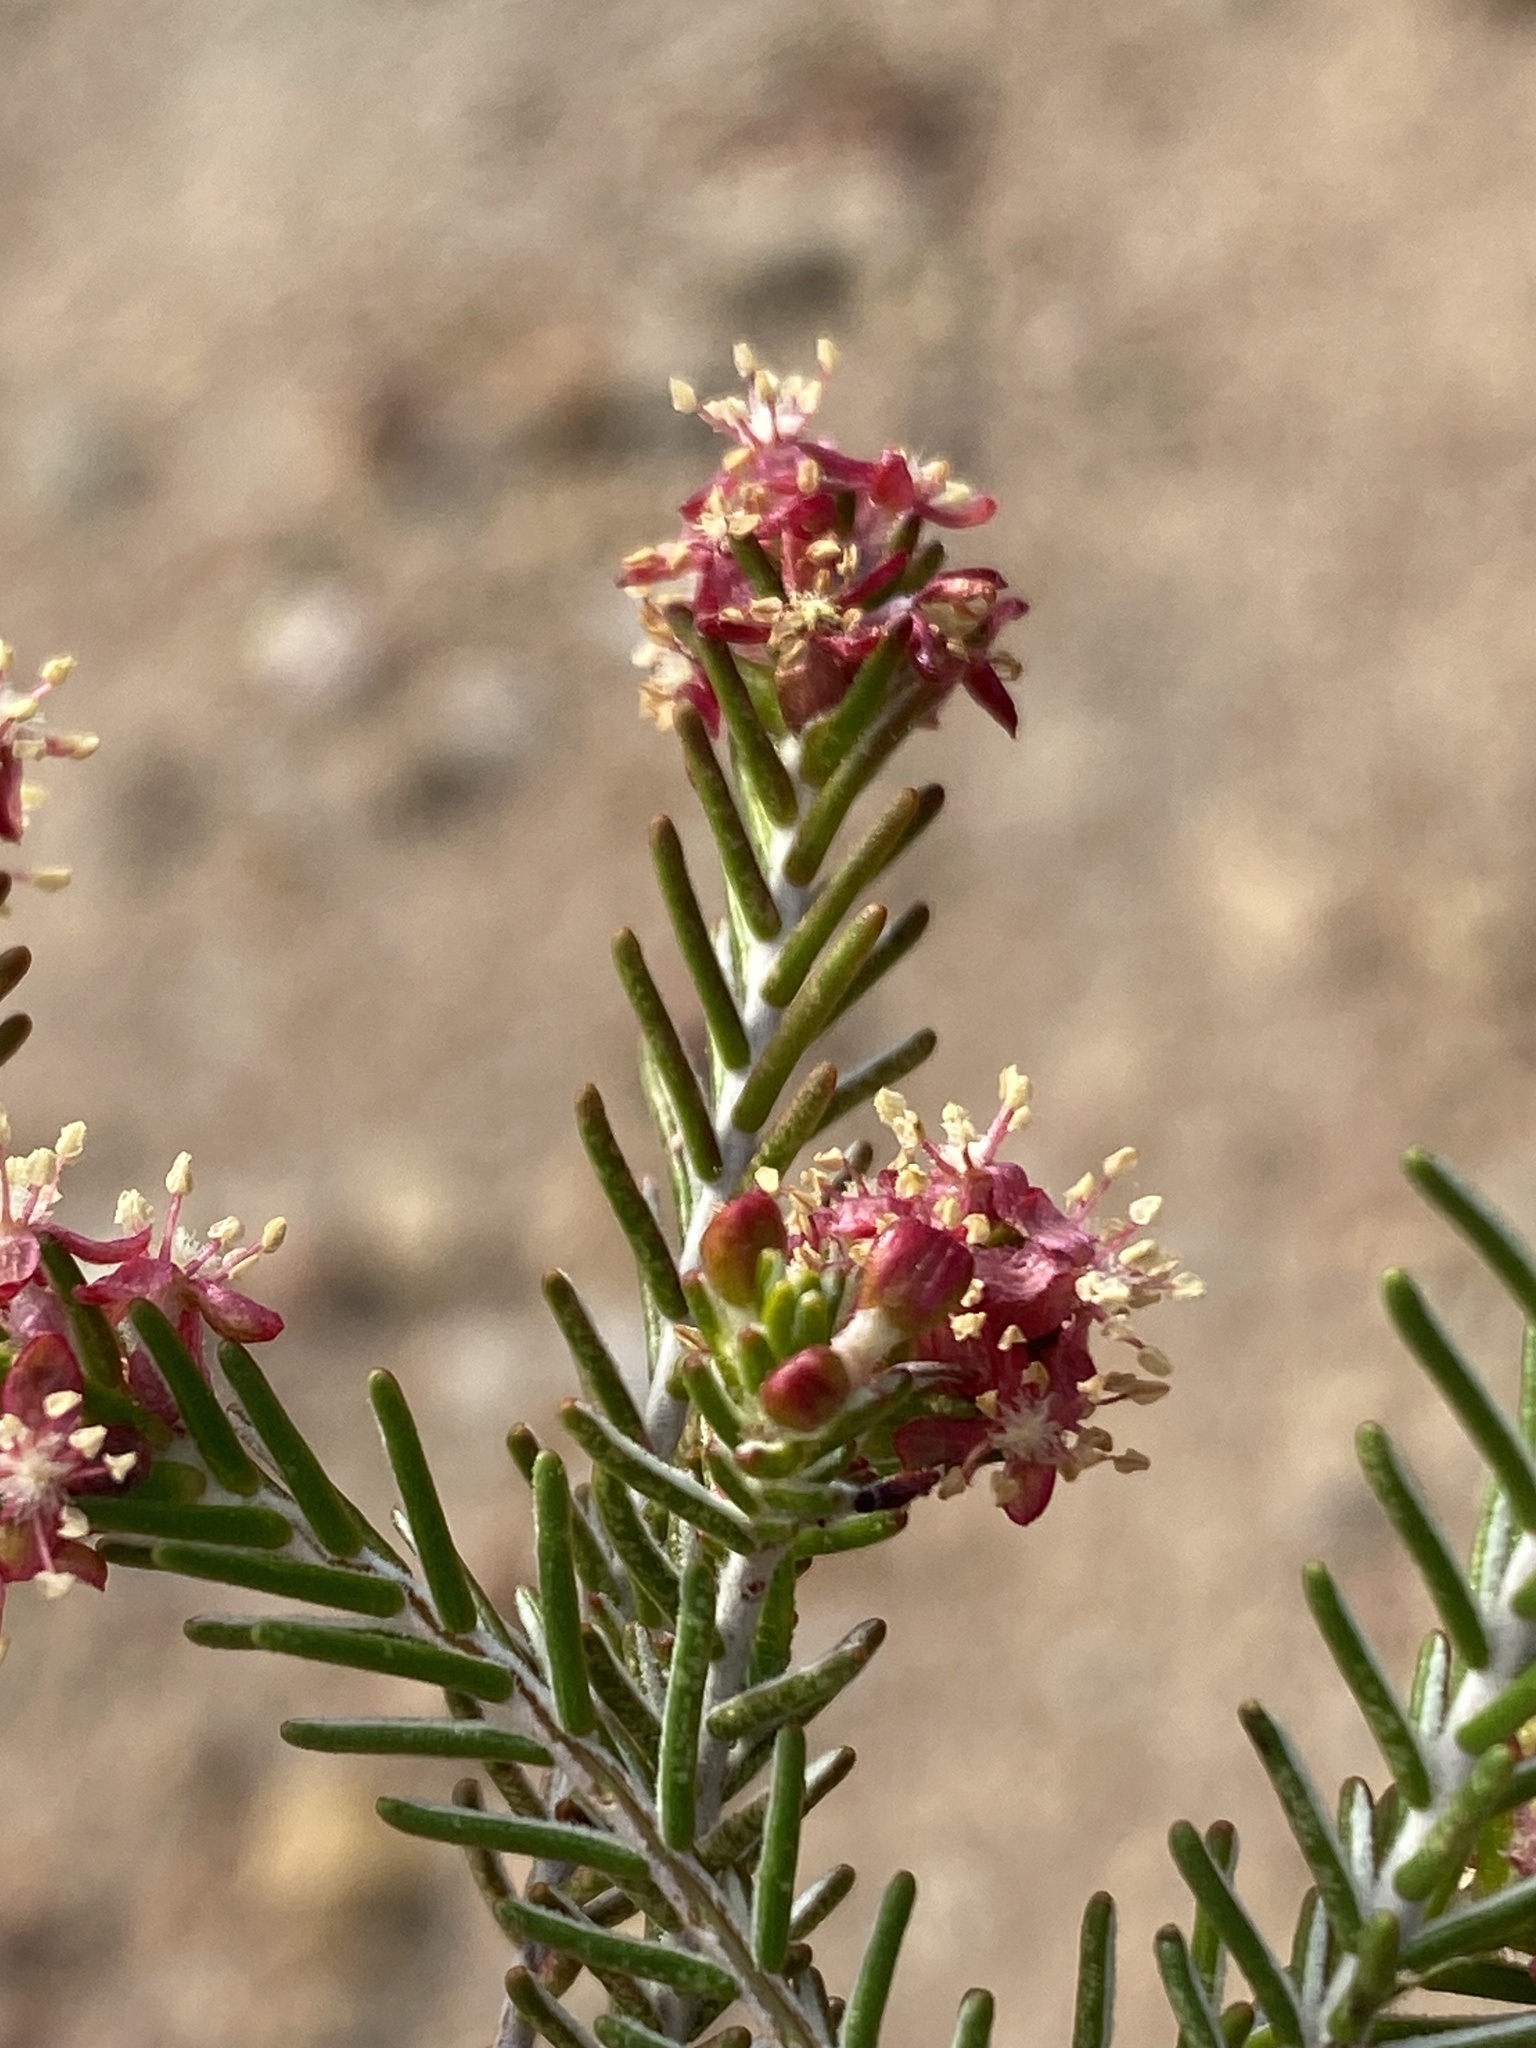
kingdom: Plantae
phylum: Tracheophyta
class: Magnoliopsida
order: Malvales
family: Thymelaeaceae
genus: Passerina
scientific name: Passerina obtusifolia
